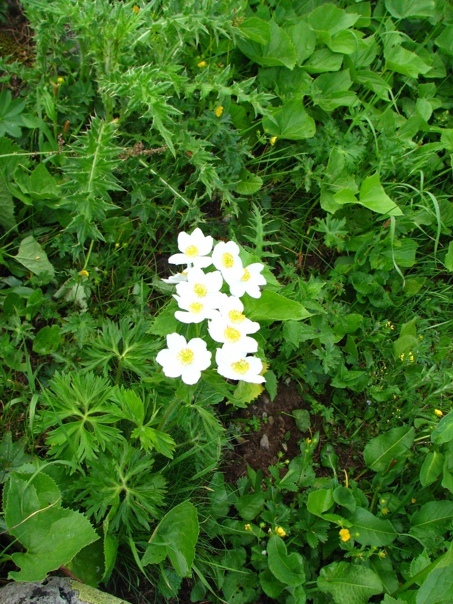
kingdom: Plantae
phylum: Tracheophyta
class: Magnoliopsida
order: Ranunculales
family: Ranunculaceae
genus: Anemonastrum
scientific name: Anemonastrum narcissiflorum
